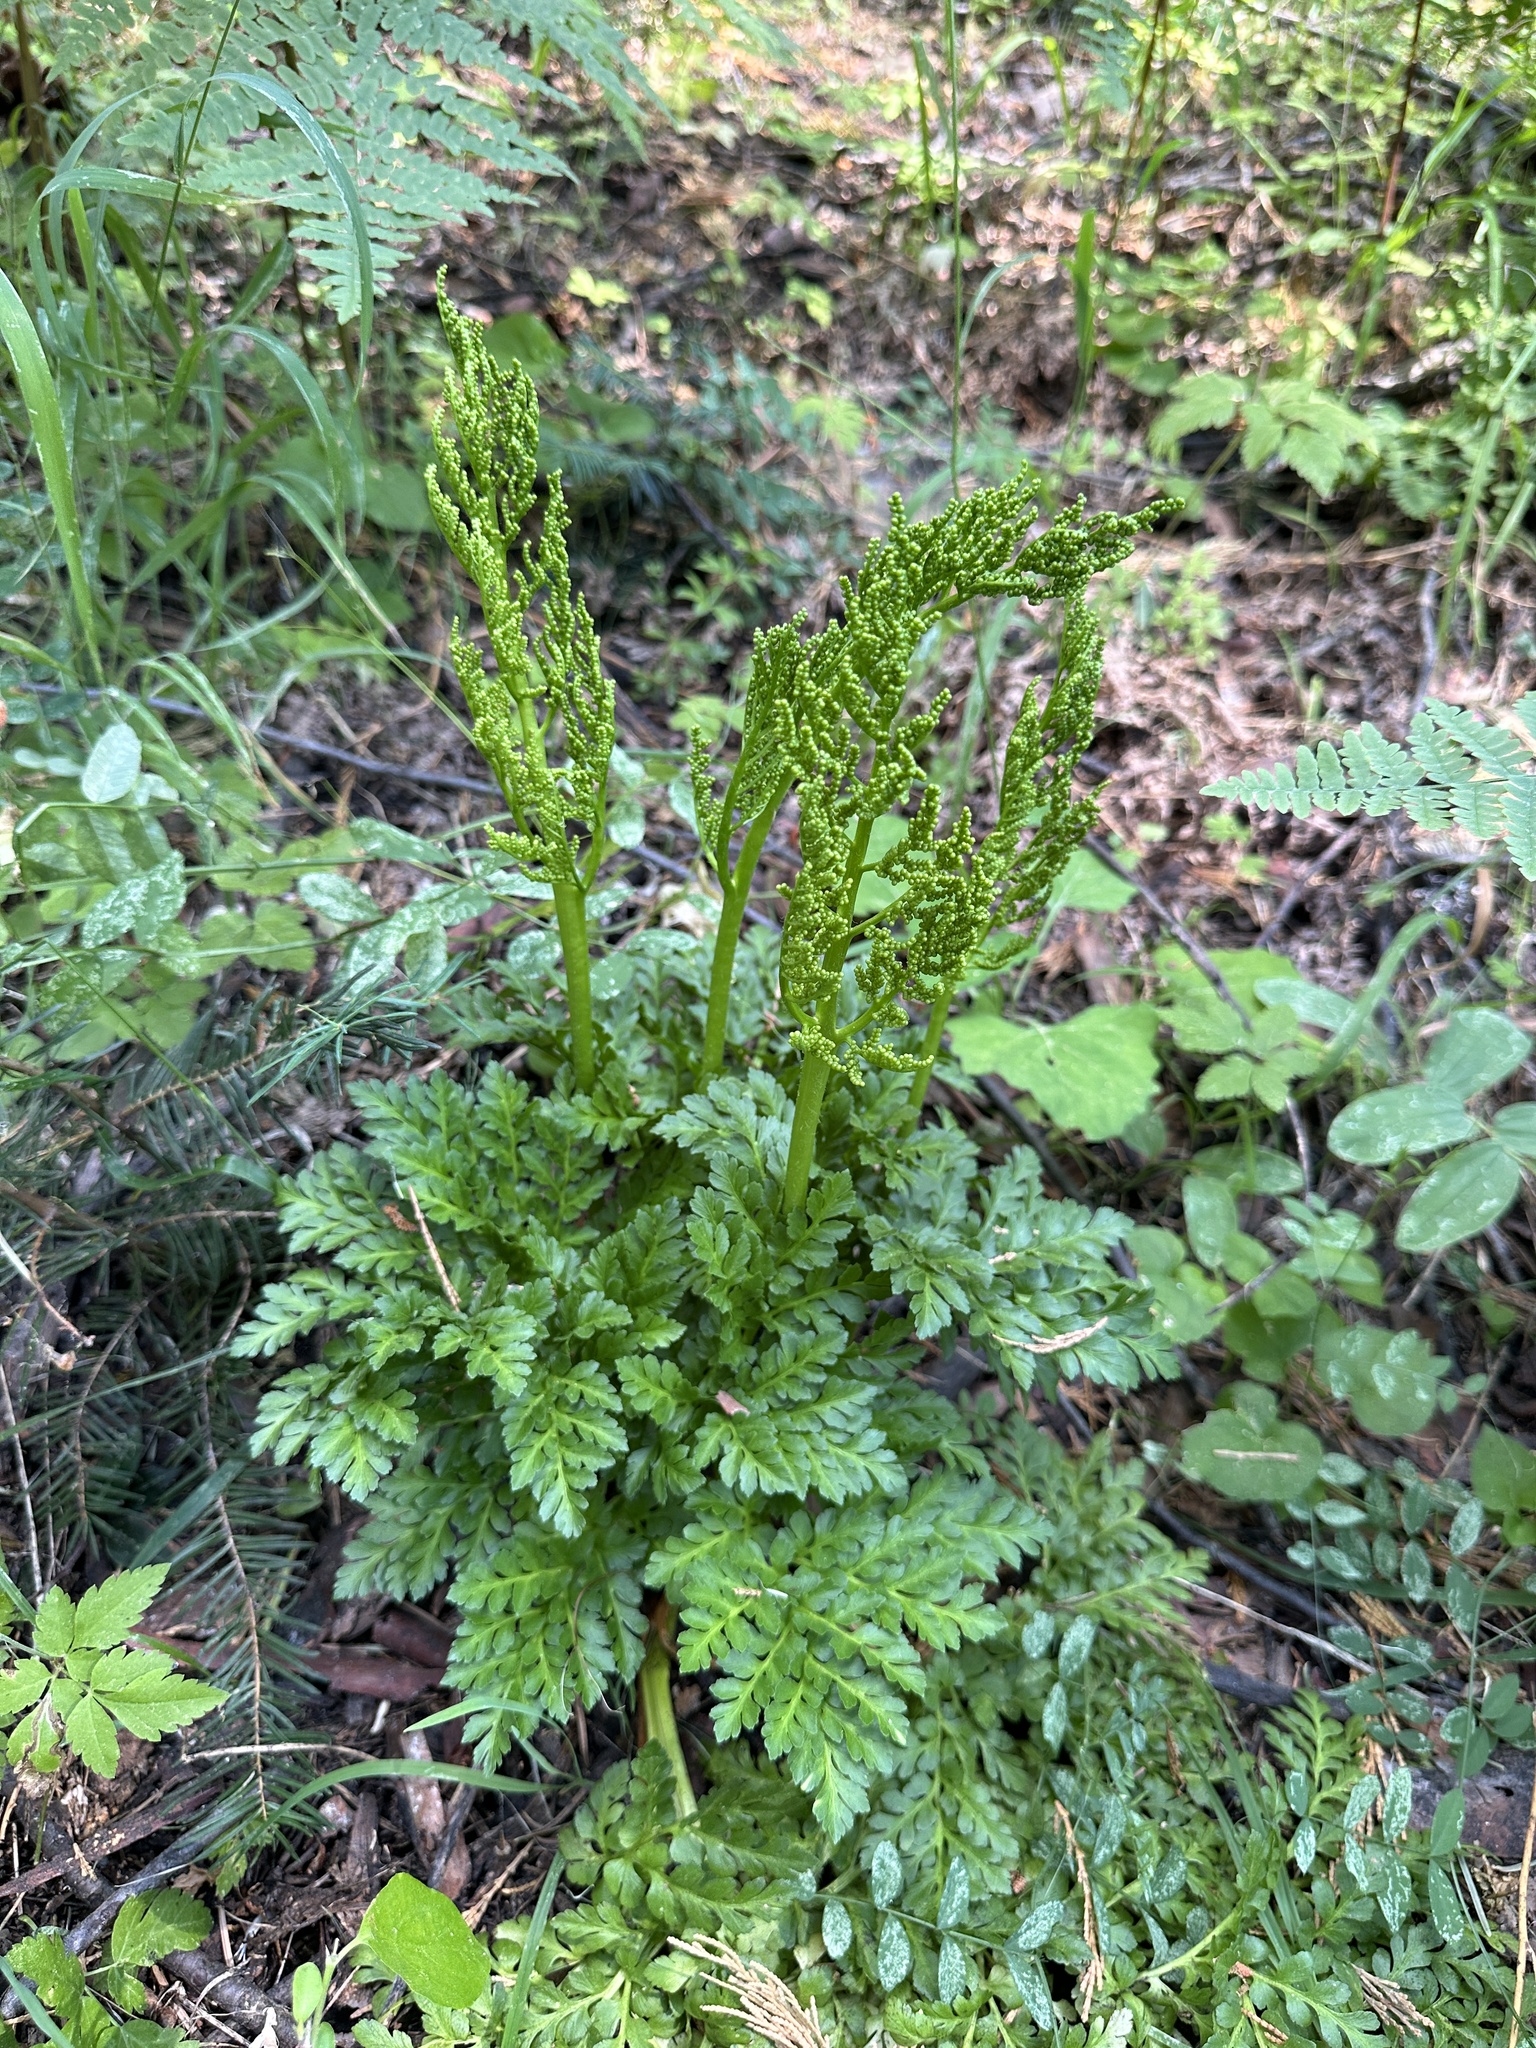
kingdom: Plantae
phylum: Tracheophyta
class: Polypodiopsida
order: Ophioglossales
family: Ophioglossaceae
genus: Sceptridium
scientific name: Sceptridium multifidum
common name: Leathery grape fern
